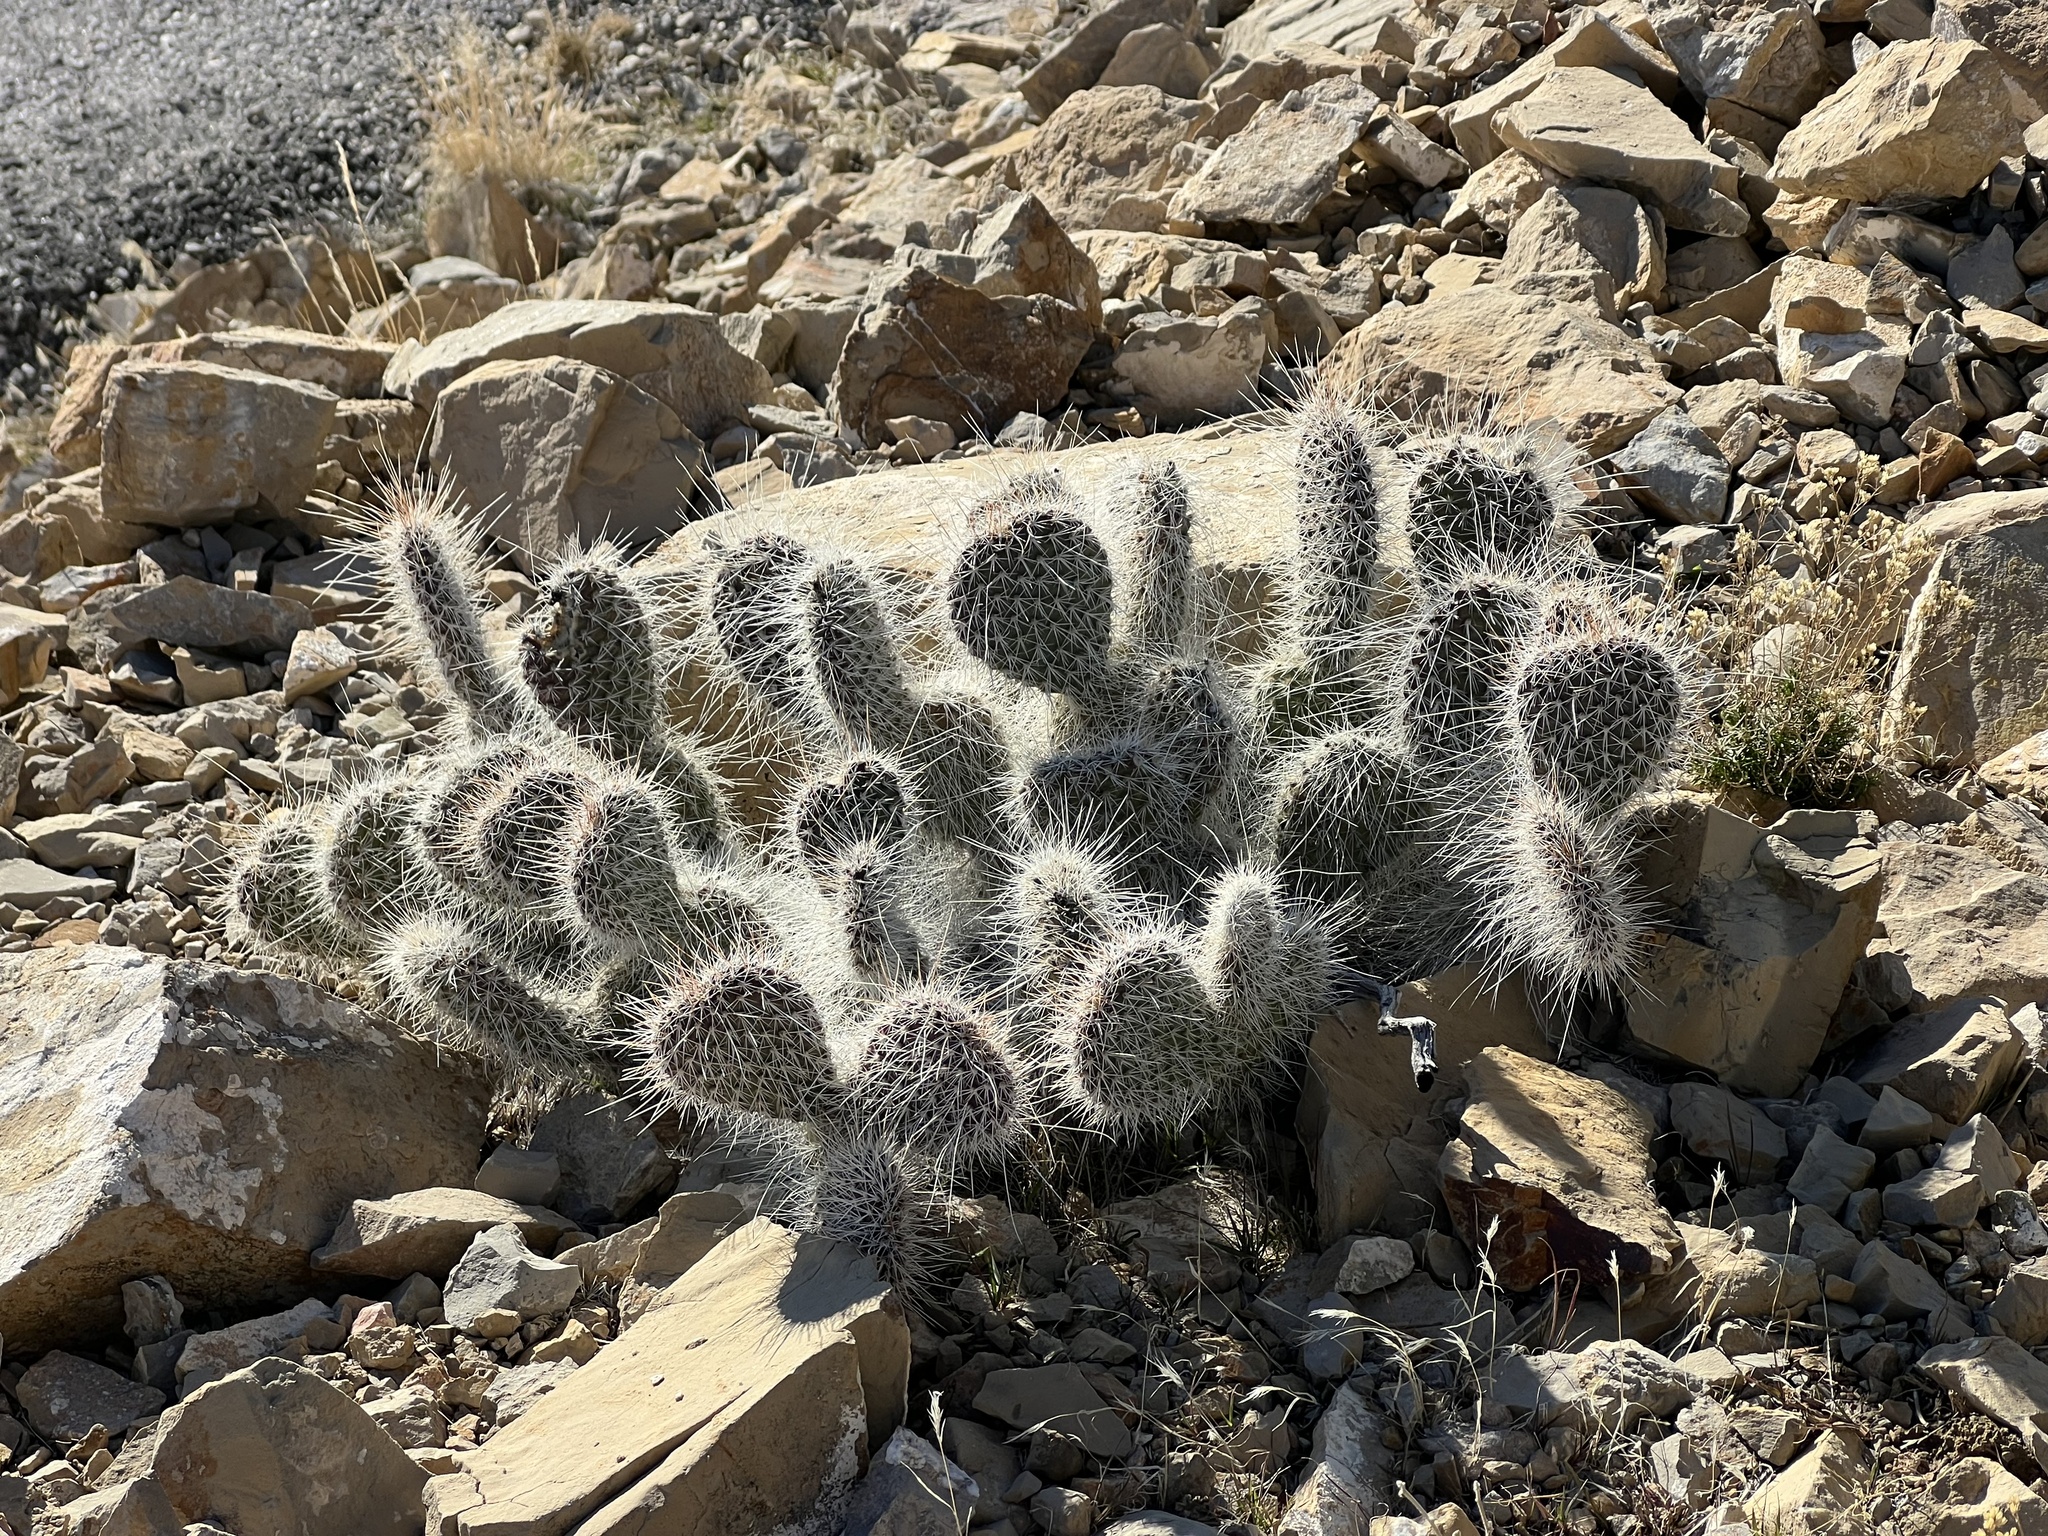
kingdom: Plantae
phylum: Tracheophyta
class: Magnoliopsida
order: Caryophyllales
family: Cactaceae
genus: Opuntia
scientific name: Opuntia polyacantha
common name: Plains prickly-pear
